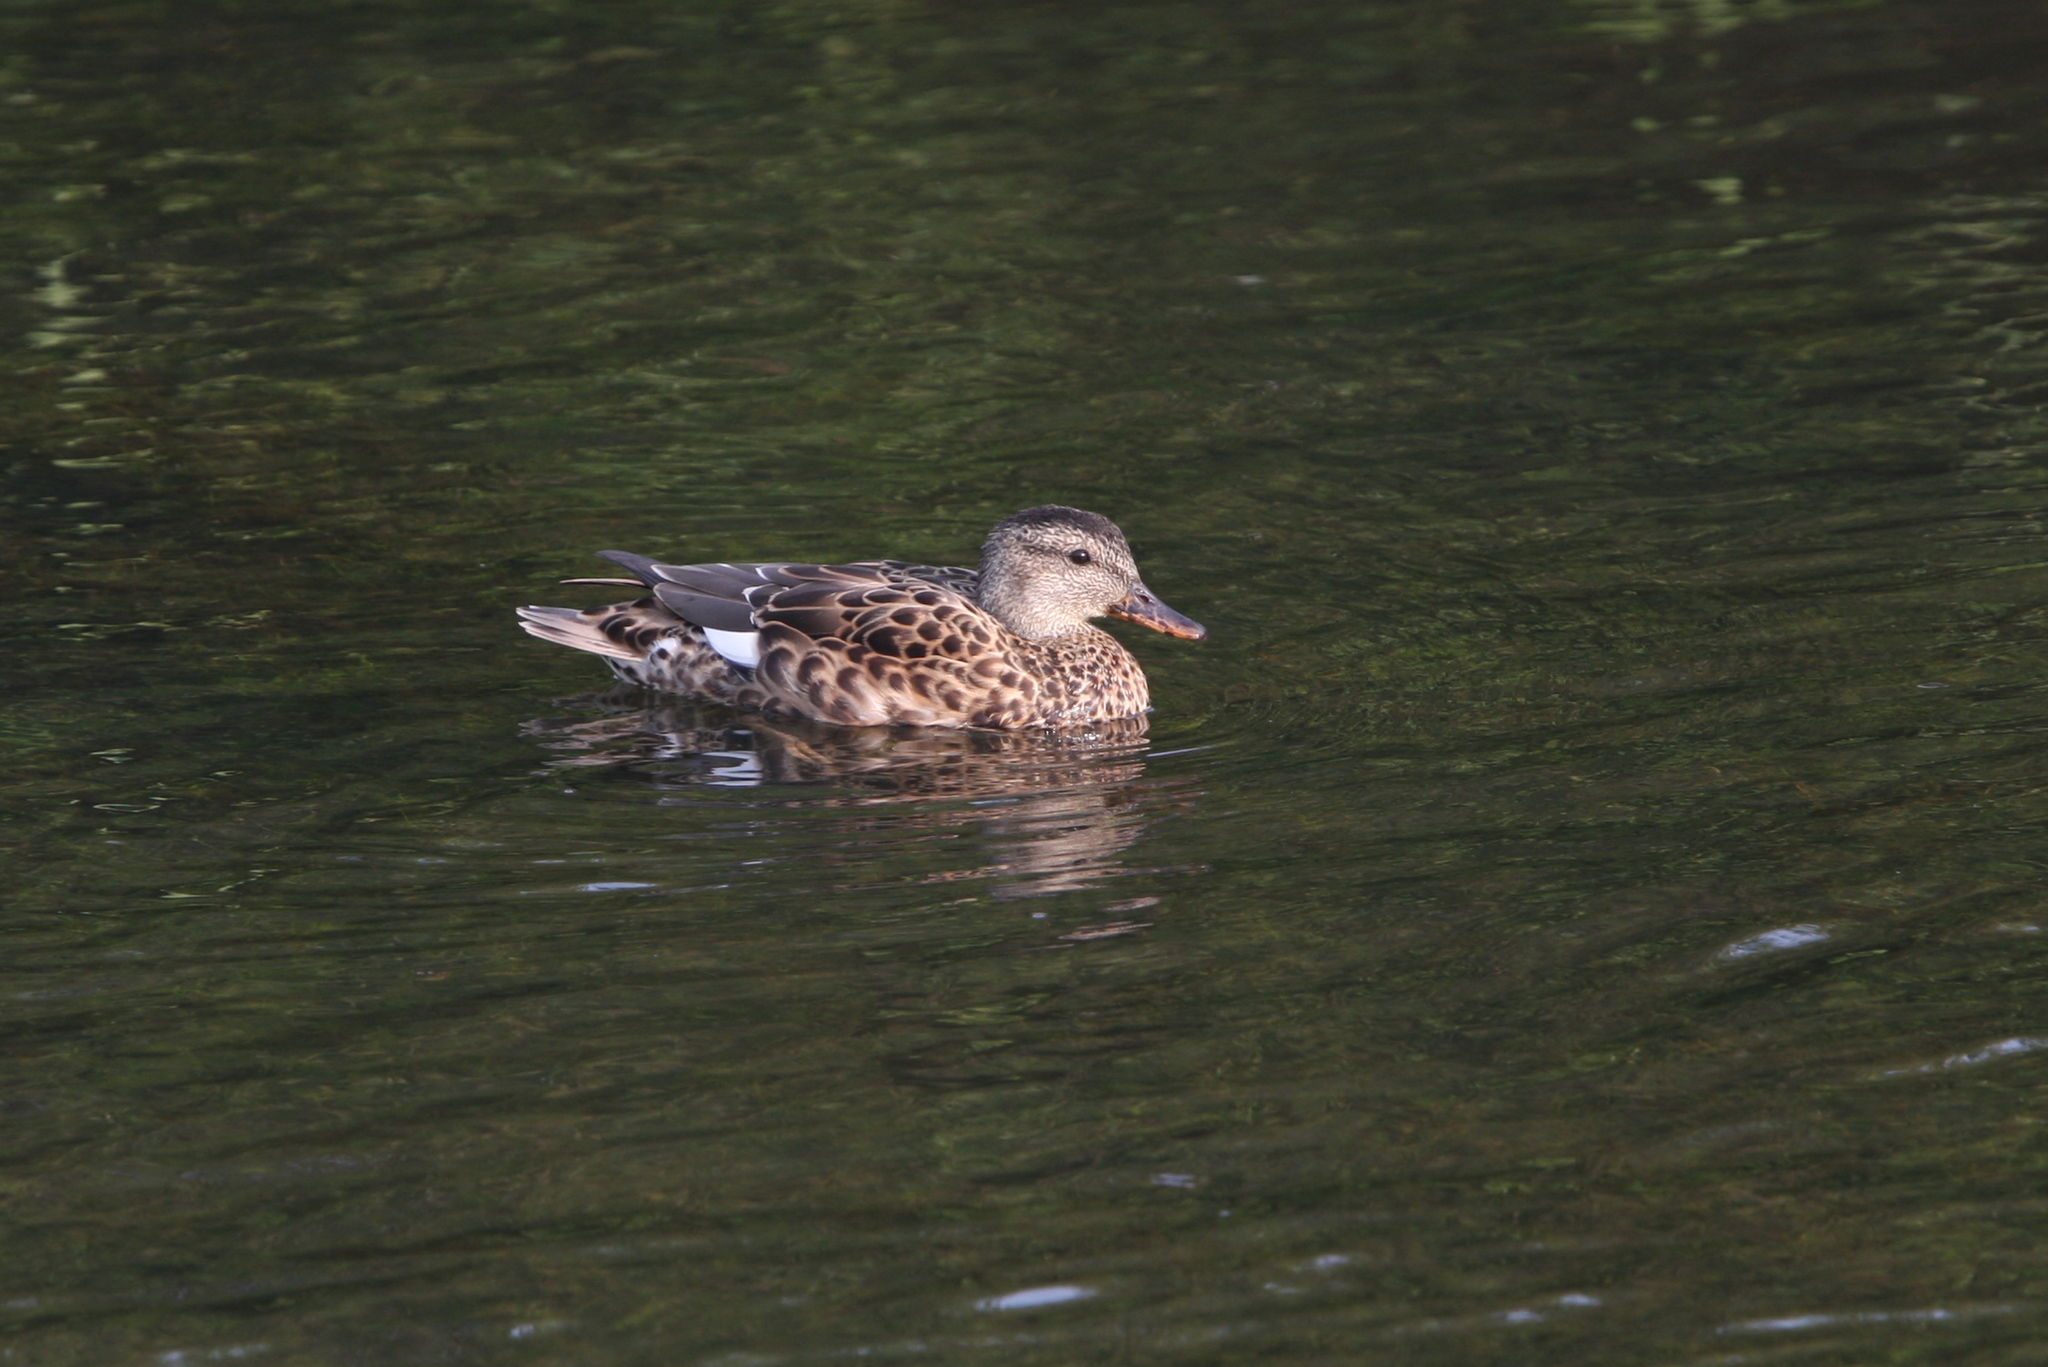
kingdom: Animalia
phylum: Chordata
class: Aves
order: Anseriformes
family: Anatidae
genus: Mareca
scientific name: Mareca strepera
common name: Gadwall
